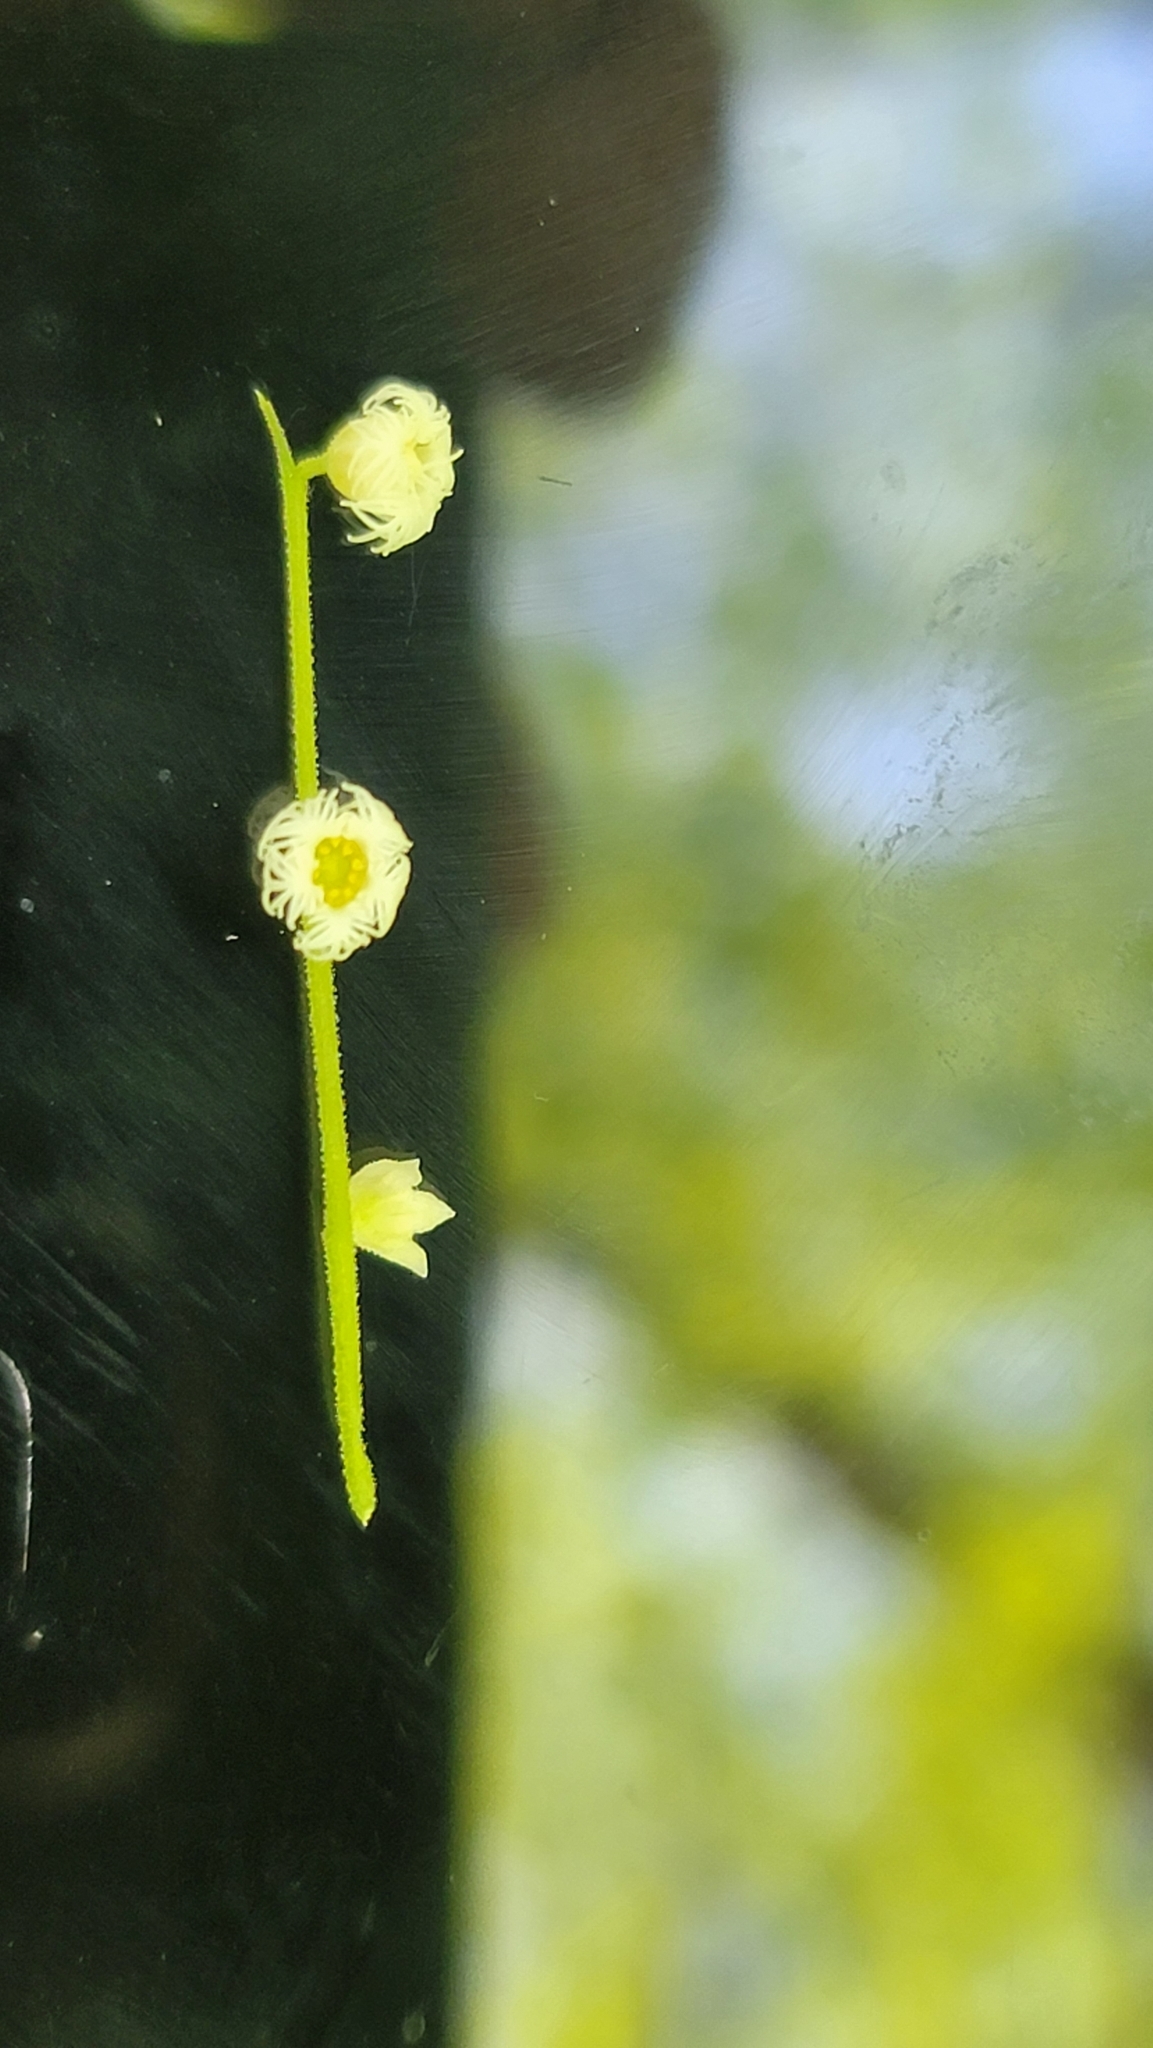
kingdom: Plantae
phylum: Tracheophyta
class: Magnoliopsida
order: Saxifragales
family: Saxifragaceae
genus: Mitella
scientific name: Mitella diphylla
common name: Coolwort
